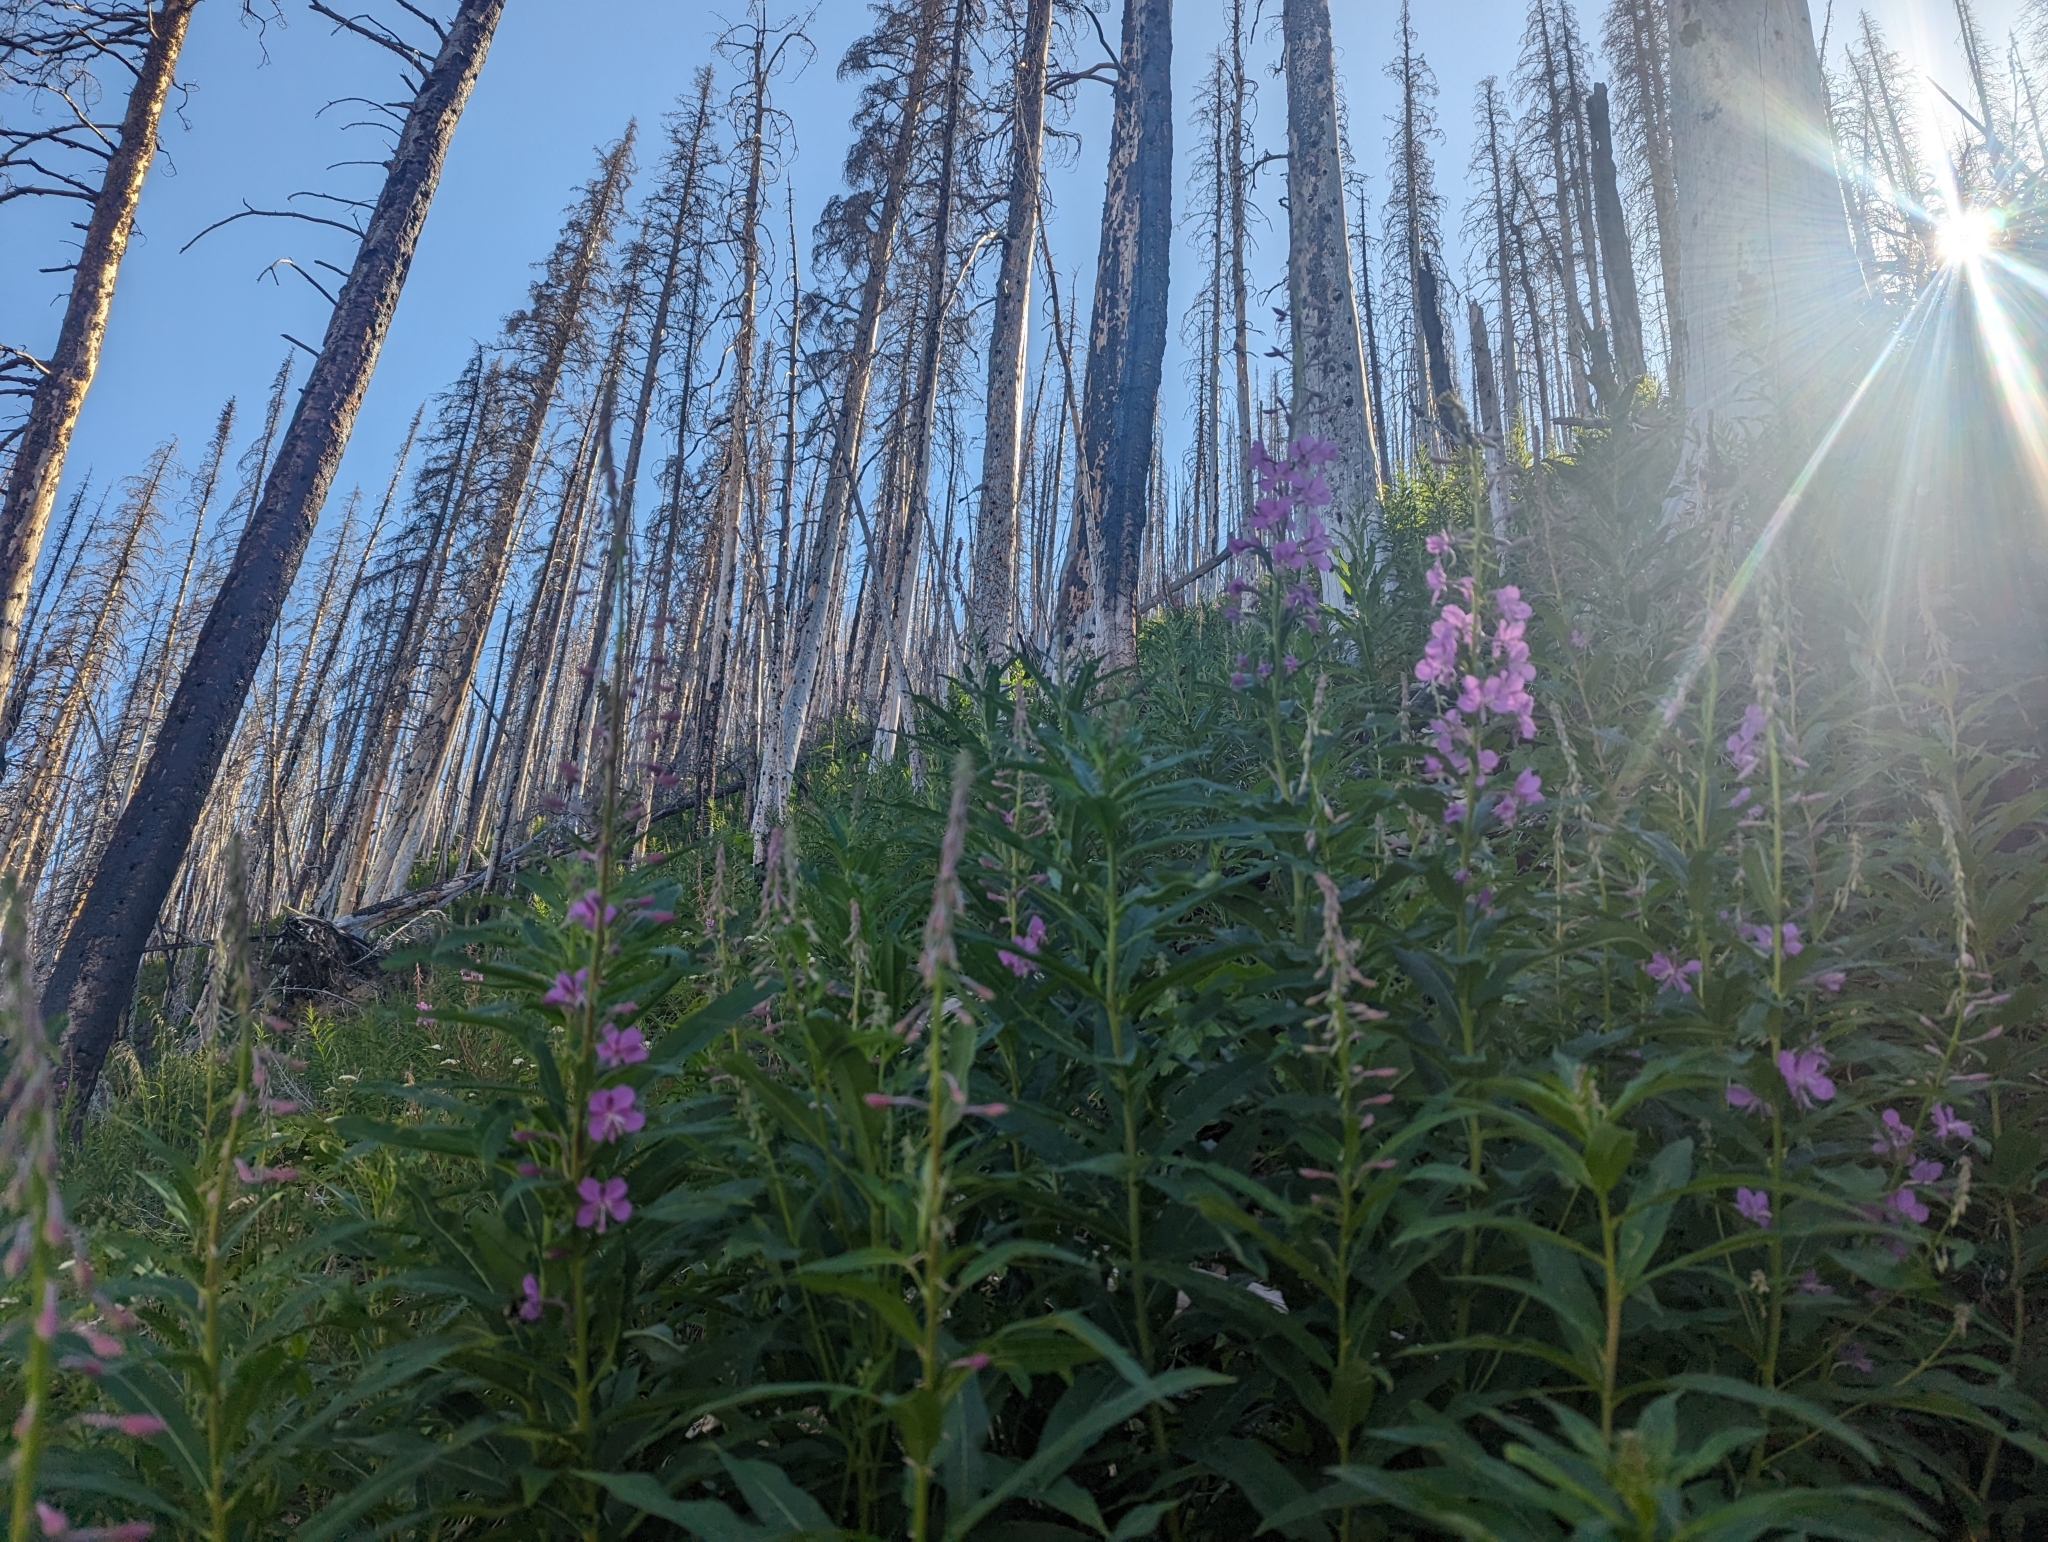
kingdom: Plantae
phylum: Tracheophyta
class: Magnoliopsida
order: Myrtales
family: Onagraceae
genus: Chamaenerion
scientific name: Chamaenerion angustifolium
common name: Fireweed
